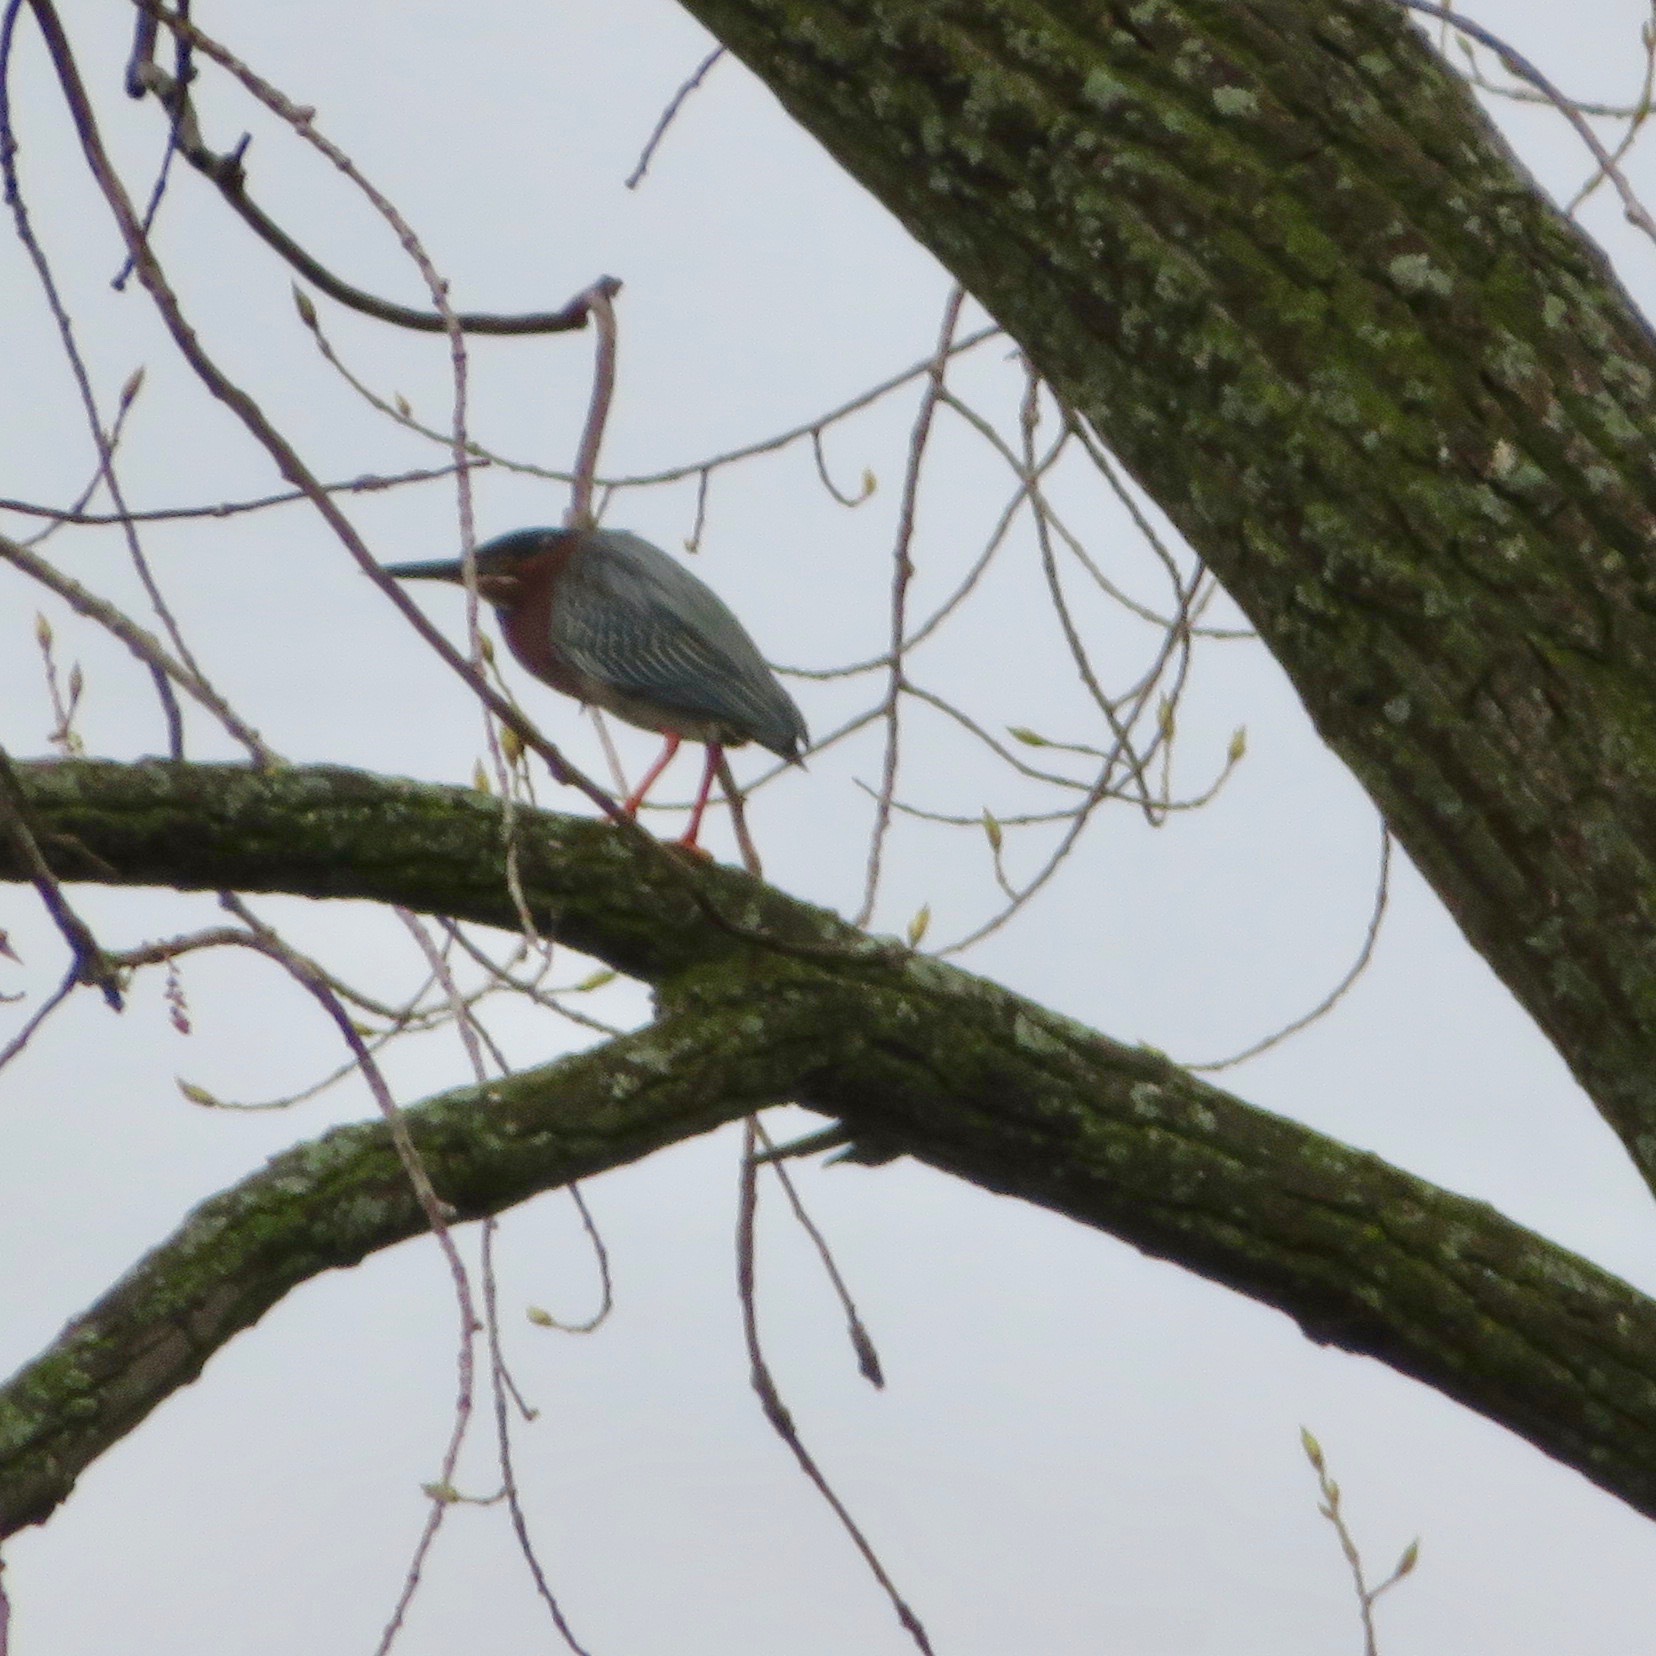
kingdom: Animalia
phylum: Chordata
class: Aves
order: Pelecaniformes
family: Ardeidae
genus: Butorides
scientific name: Butorides virescens
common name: Green heron
